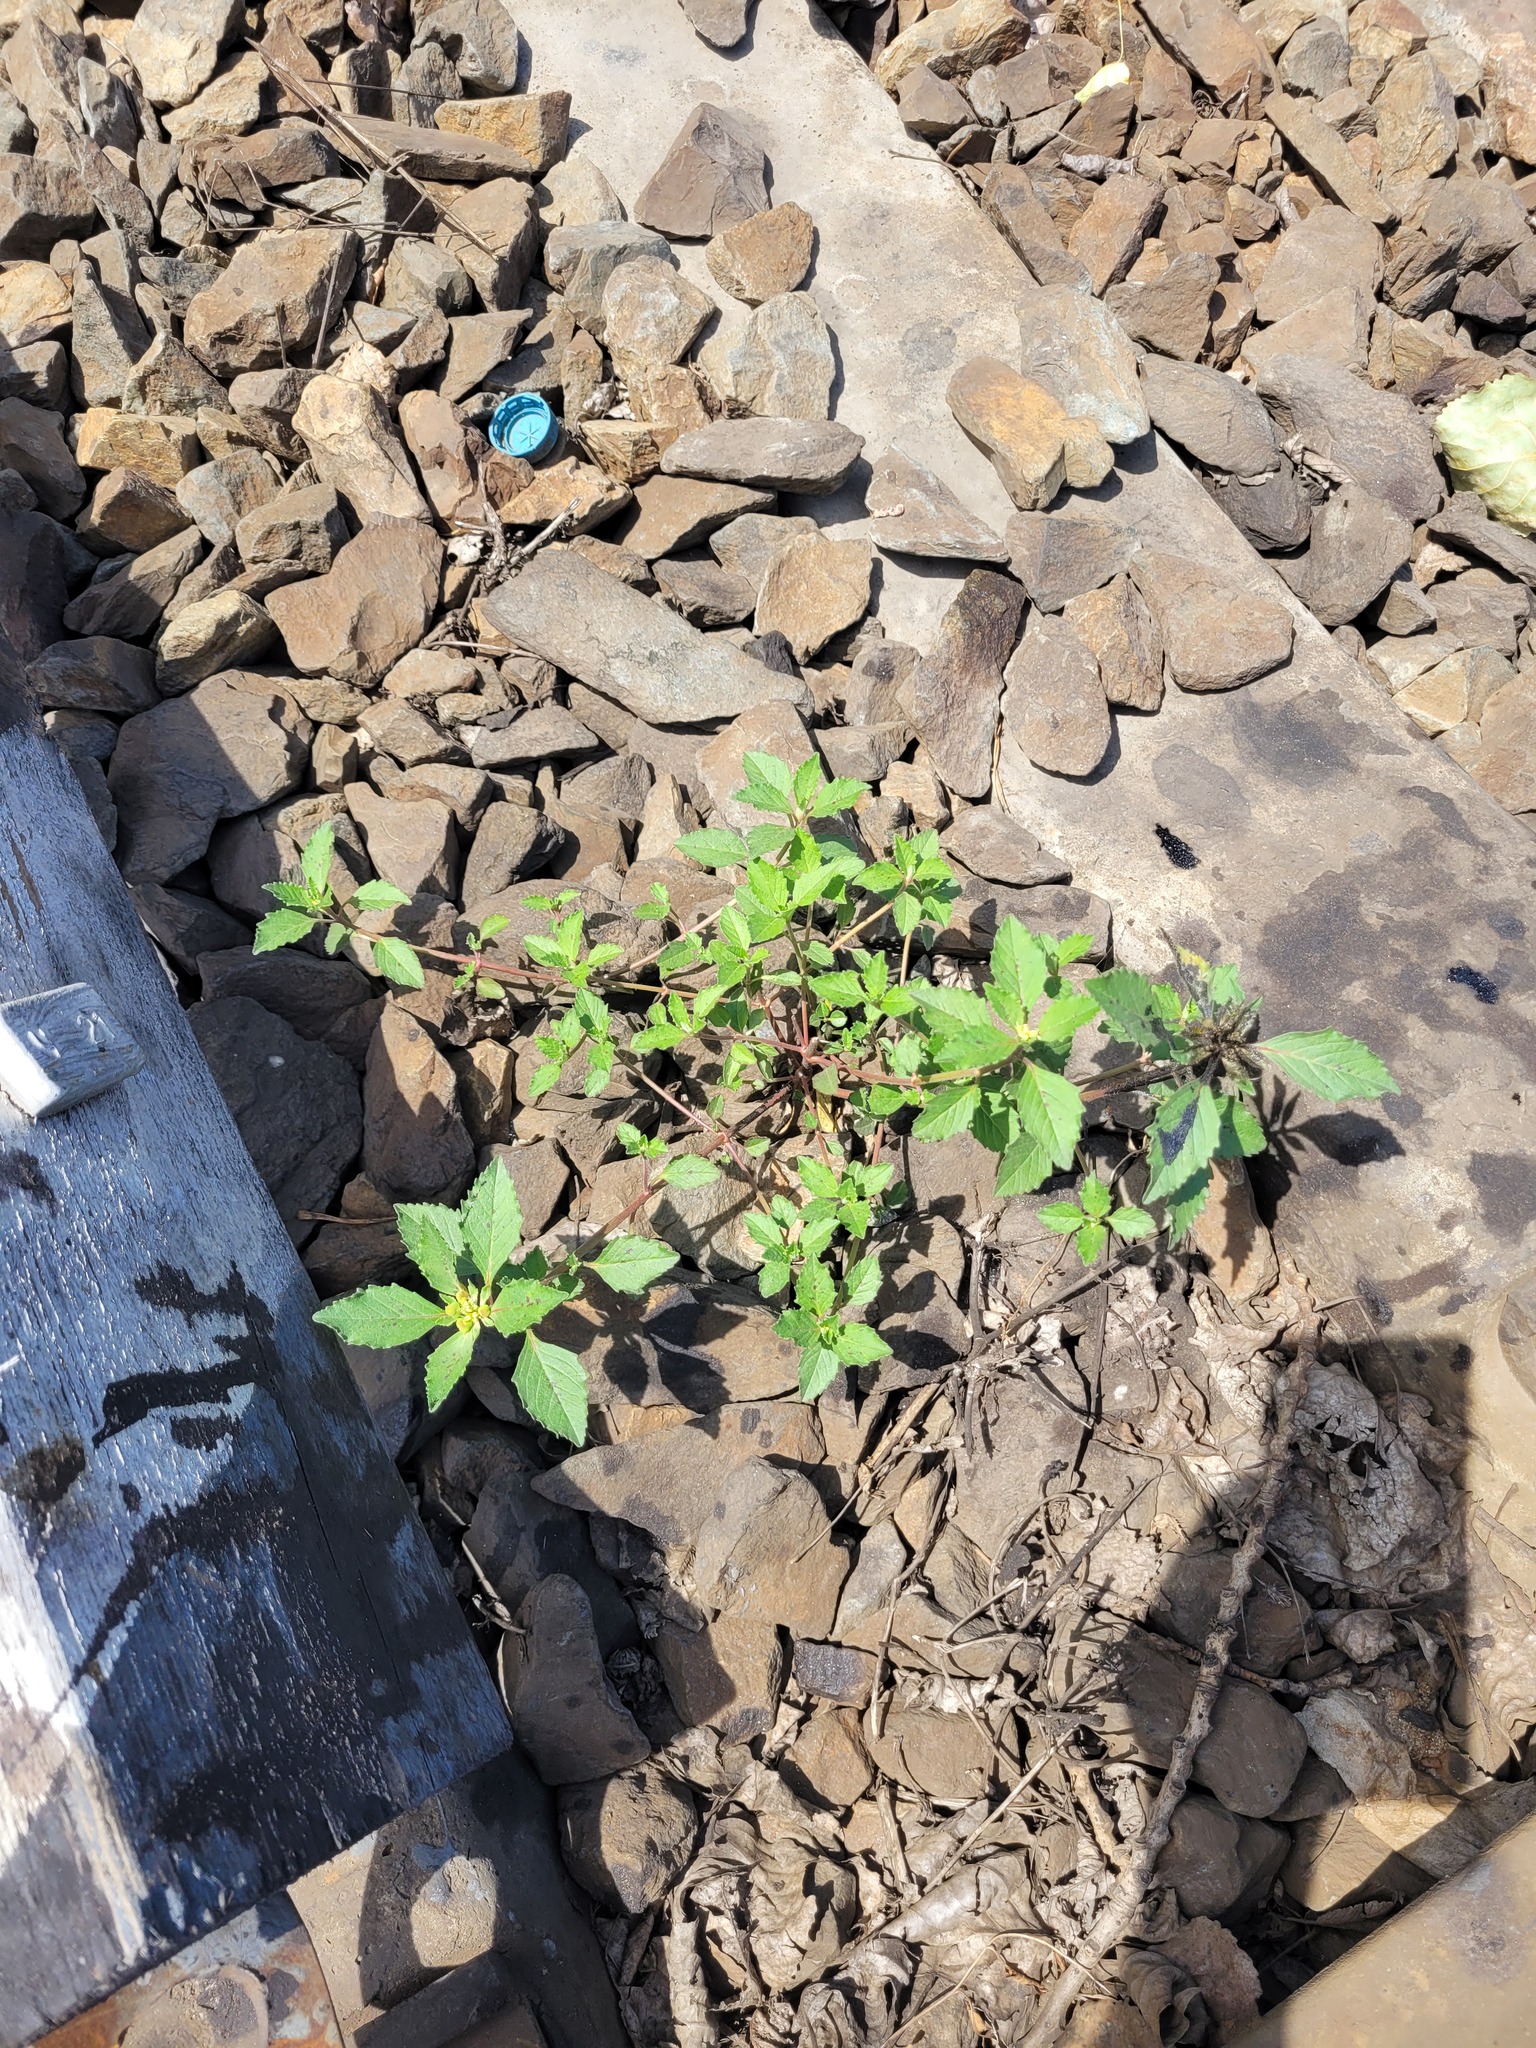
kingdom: Plantae
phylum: Tracheophyta
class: Magnoliopsida
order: Malpighiales
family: Euphorbiaceae
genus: Euphorbia
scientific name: Euphorbia davidii
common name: David's spurge
